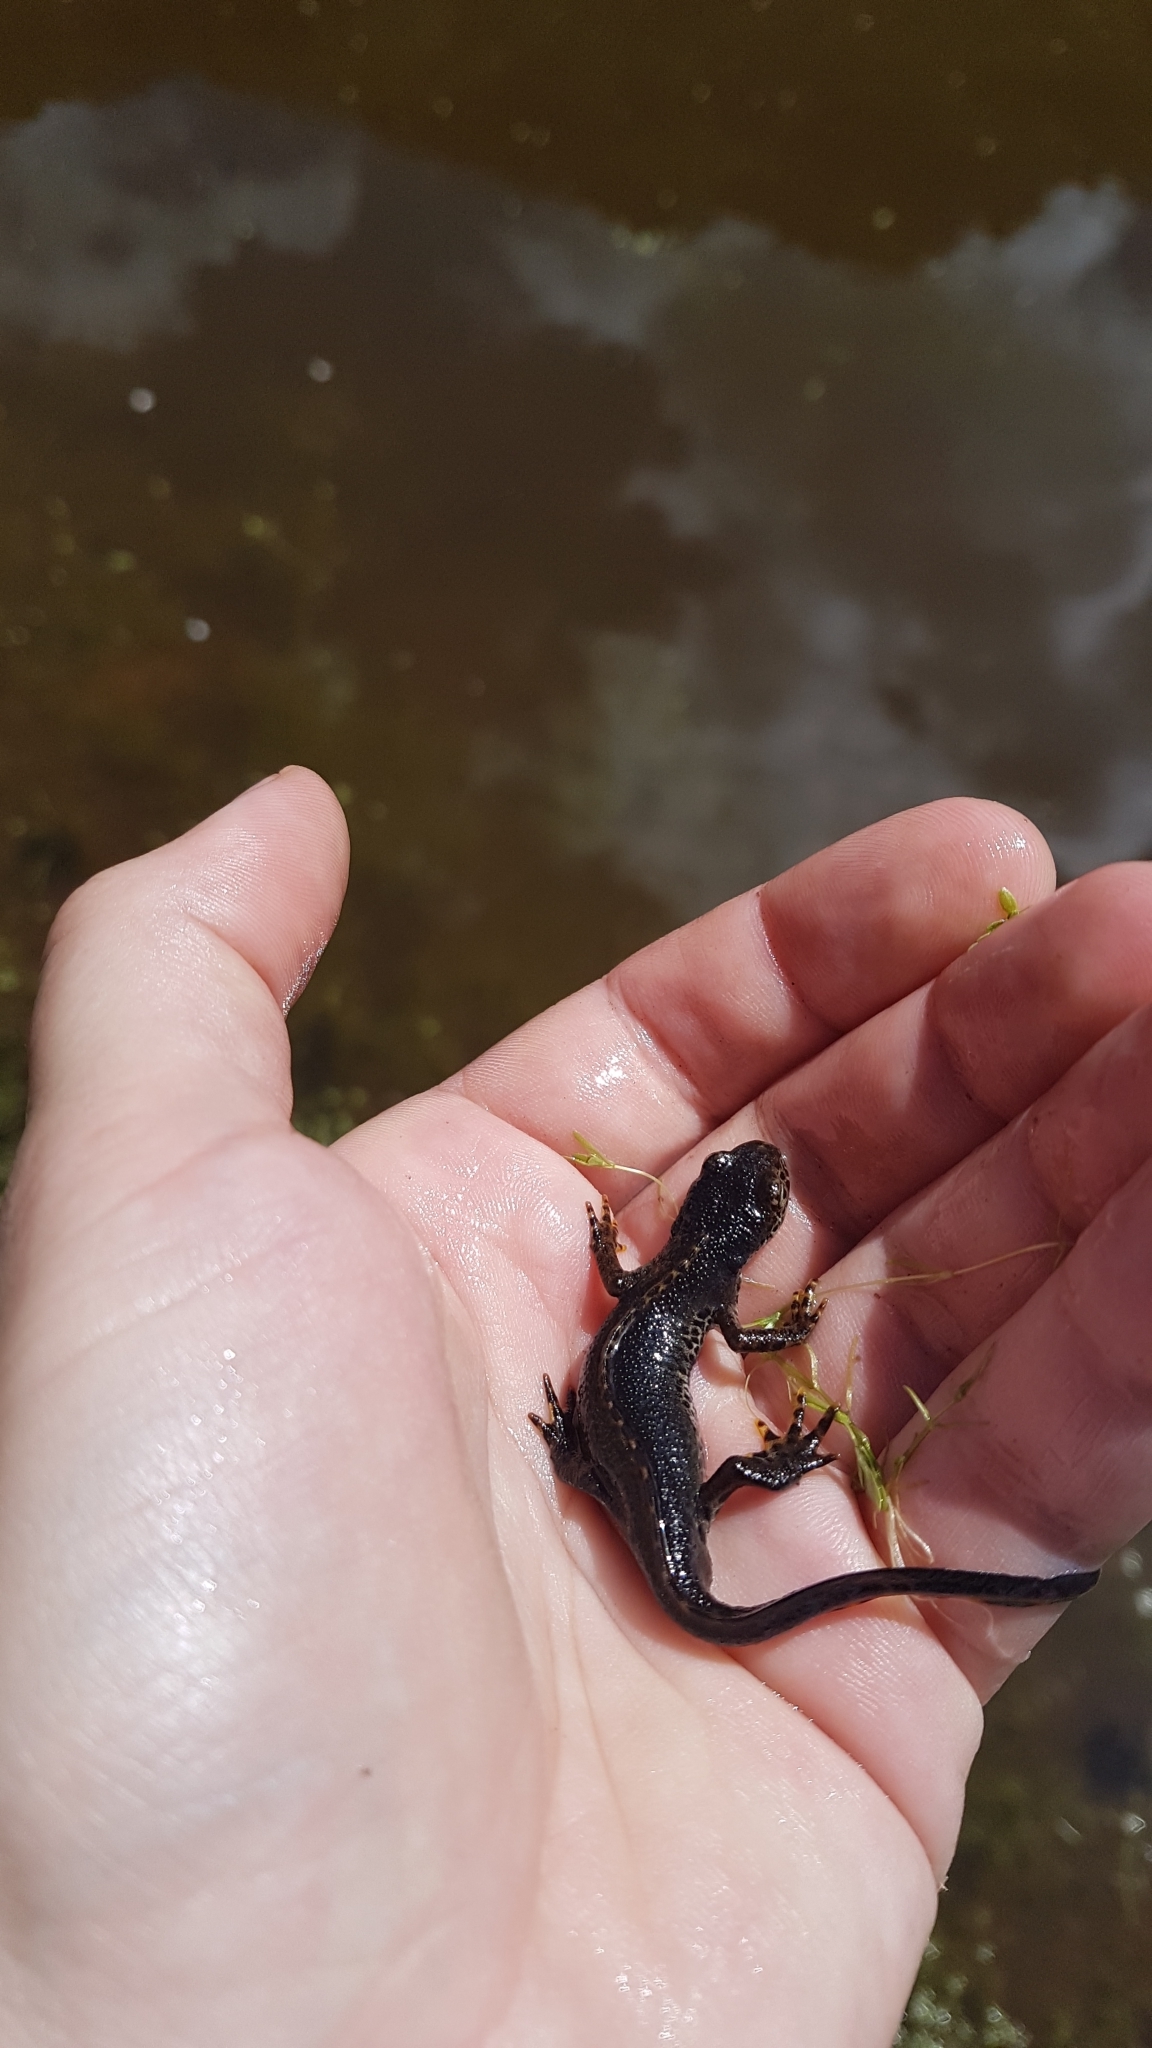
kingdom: Animalia
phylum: Chordata
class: Amphibia
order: Caudata
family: Salamandridae
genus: Ichthyosaura
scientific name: Ichthyosaura alpestris
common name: Alpine newt
